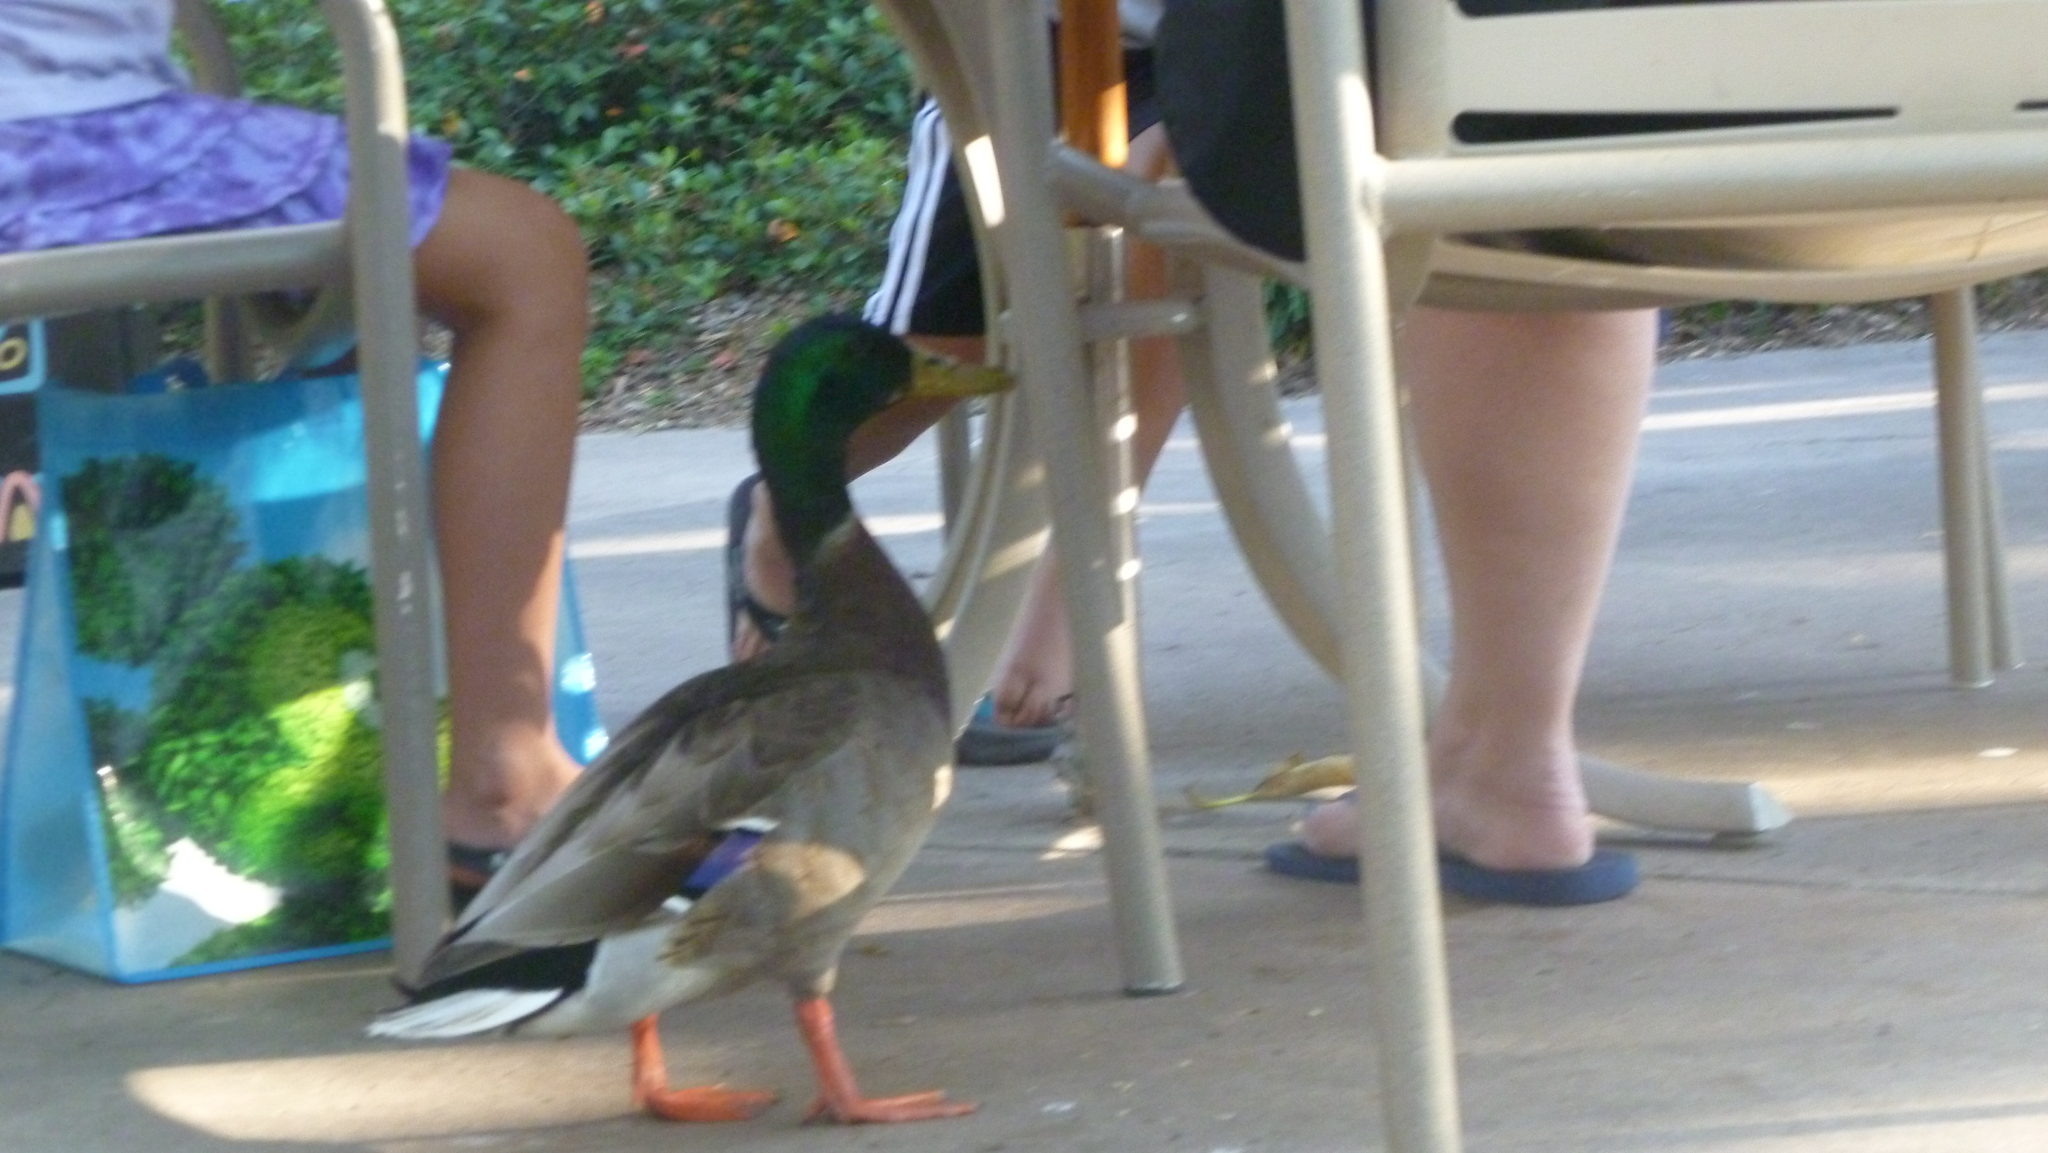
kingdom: Animalia
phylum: Chordata
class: Aves
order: Anseriformes
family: Anatidae
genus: Anas
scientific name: Anas platyrhynchos
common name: Mallard
